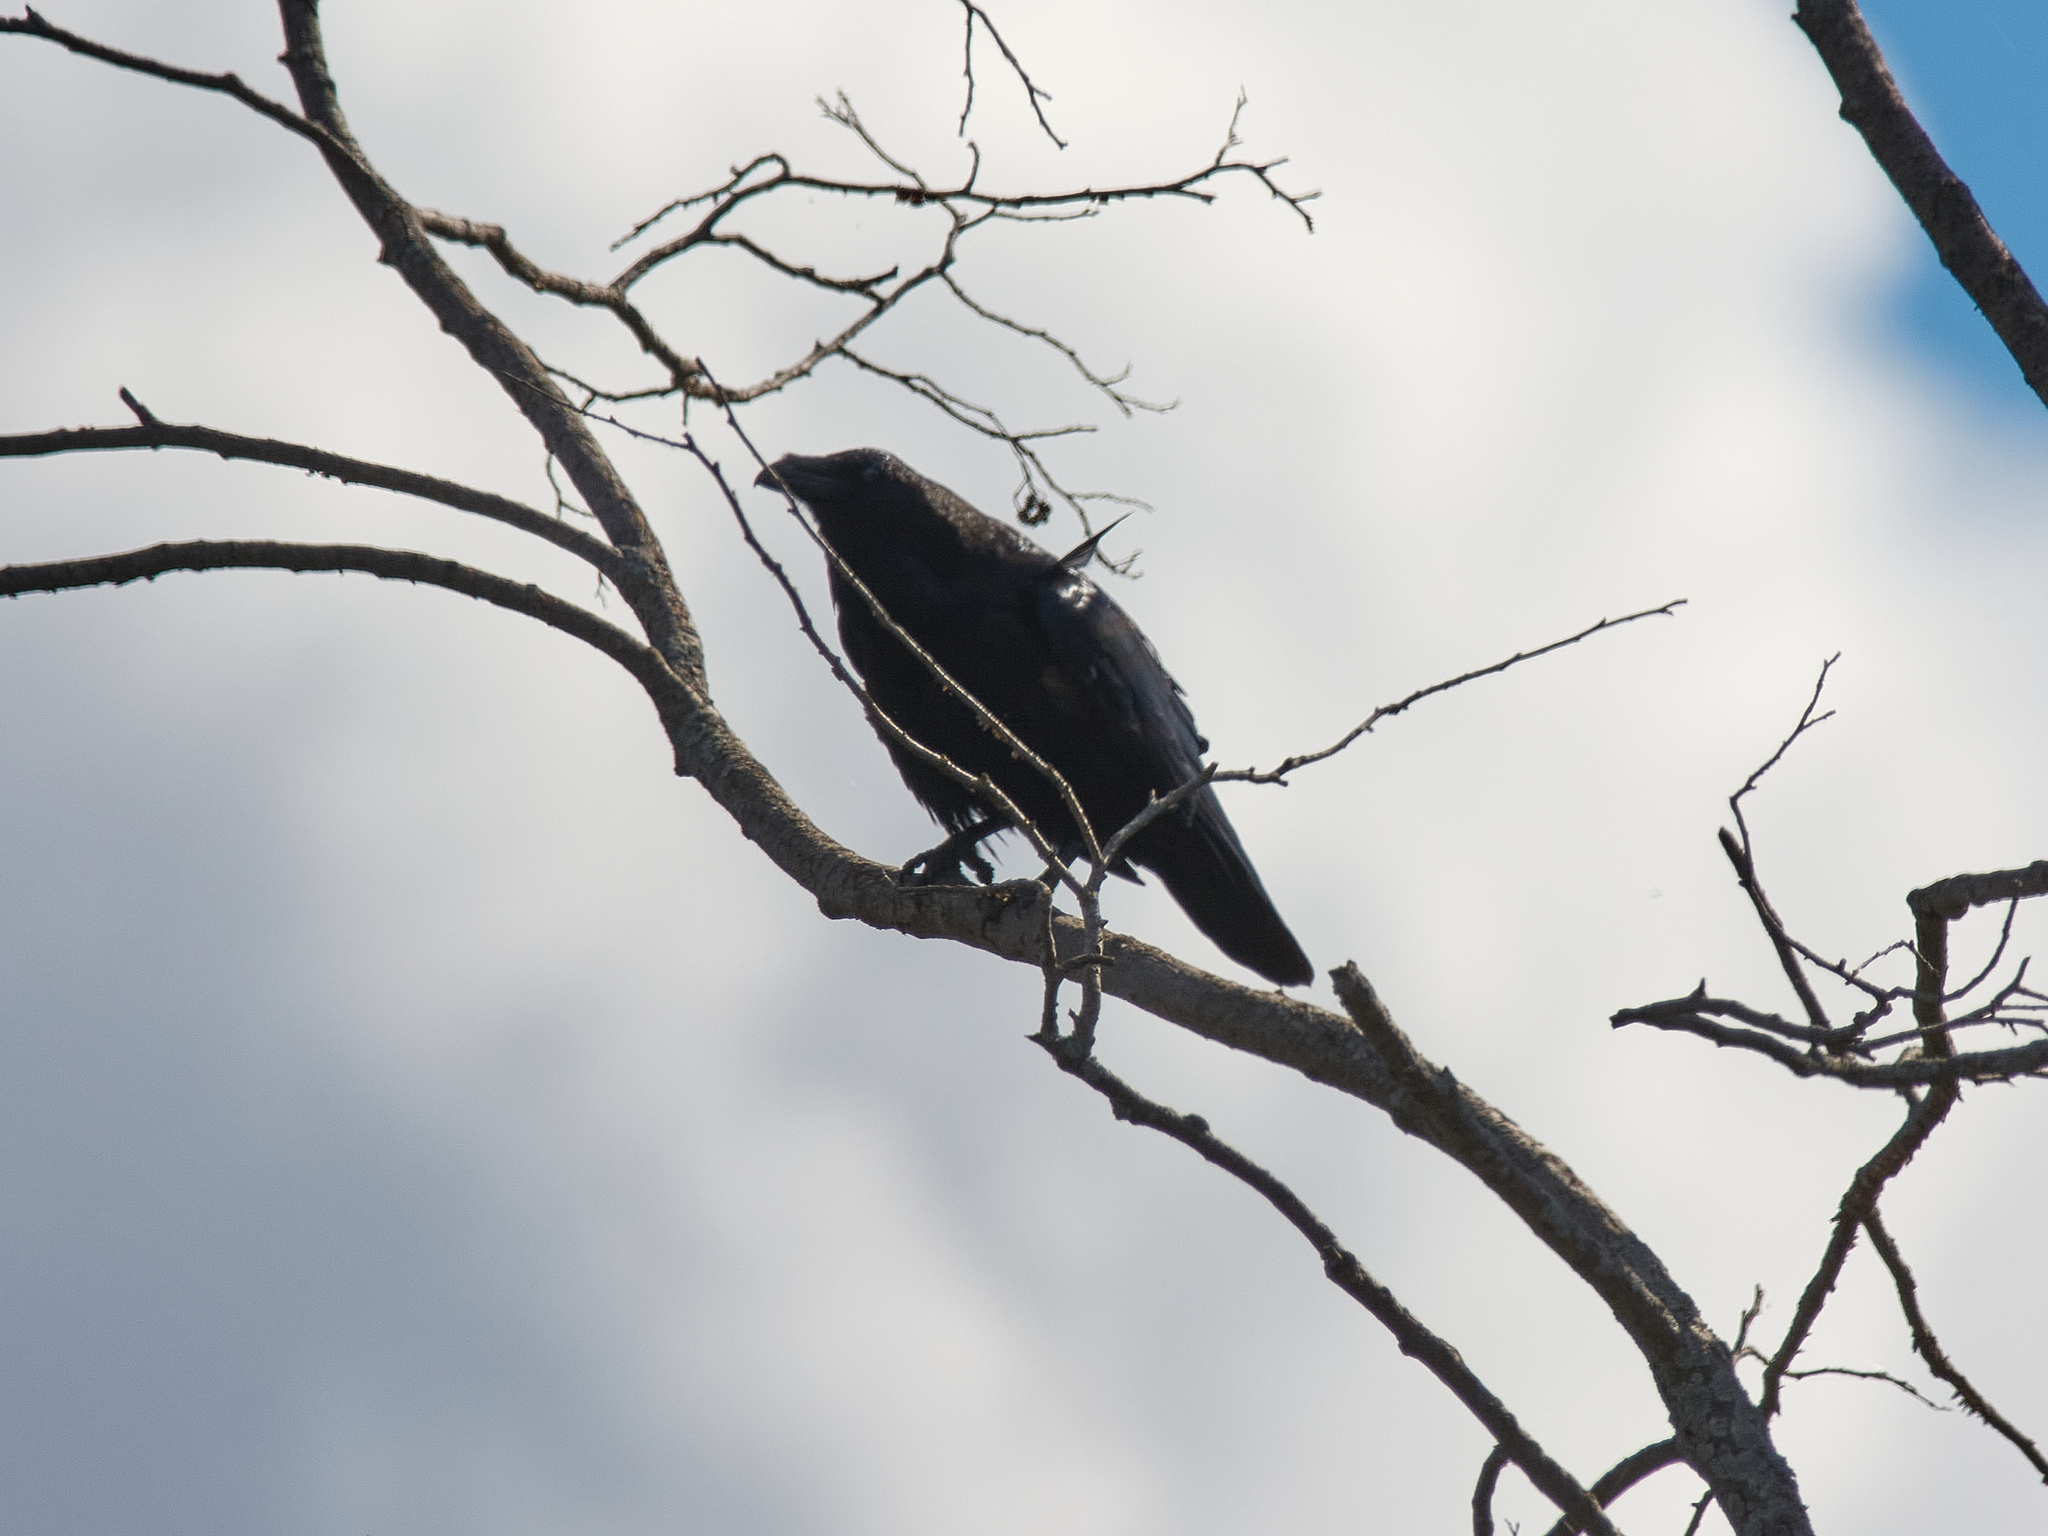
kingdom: Animalia
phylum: Chordata
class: Aves
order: Passeriformes
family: Corvidae
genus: Corvus
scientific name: Corvus corax
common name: Common raven
